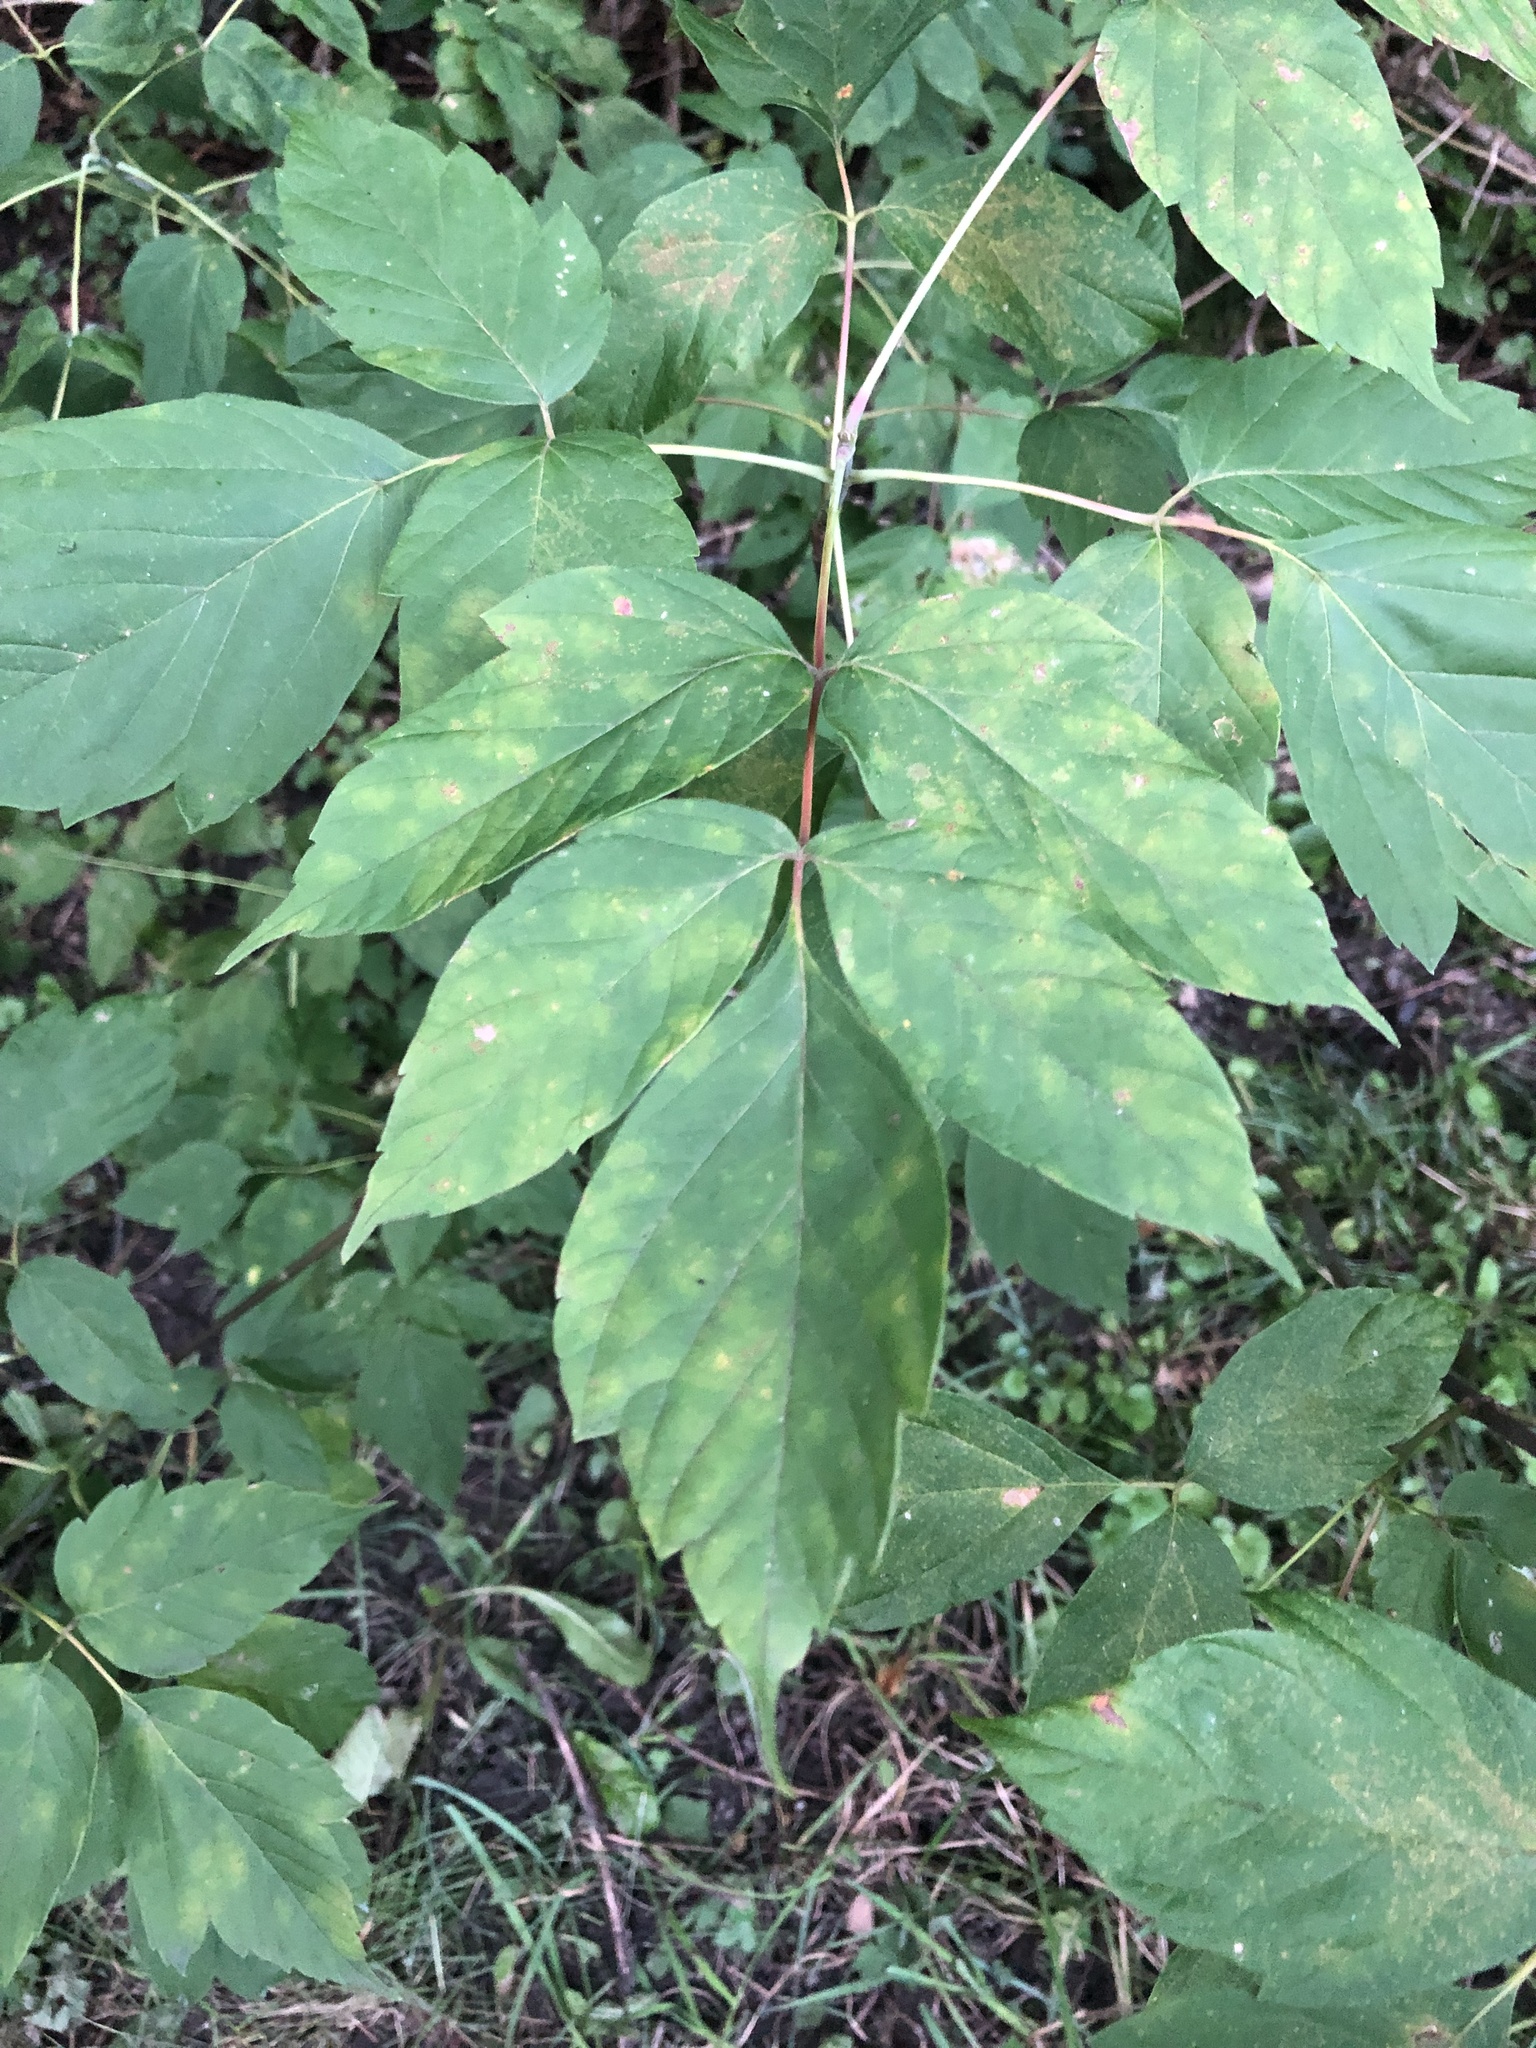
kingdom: Plantae
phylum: Tracheophyta
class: Magnoliopsida
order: Sapindales
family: Sapindaceae
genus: Acer
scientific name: Acer negundo
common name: Ashleaf maple
